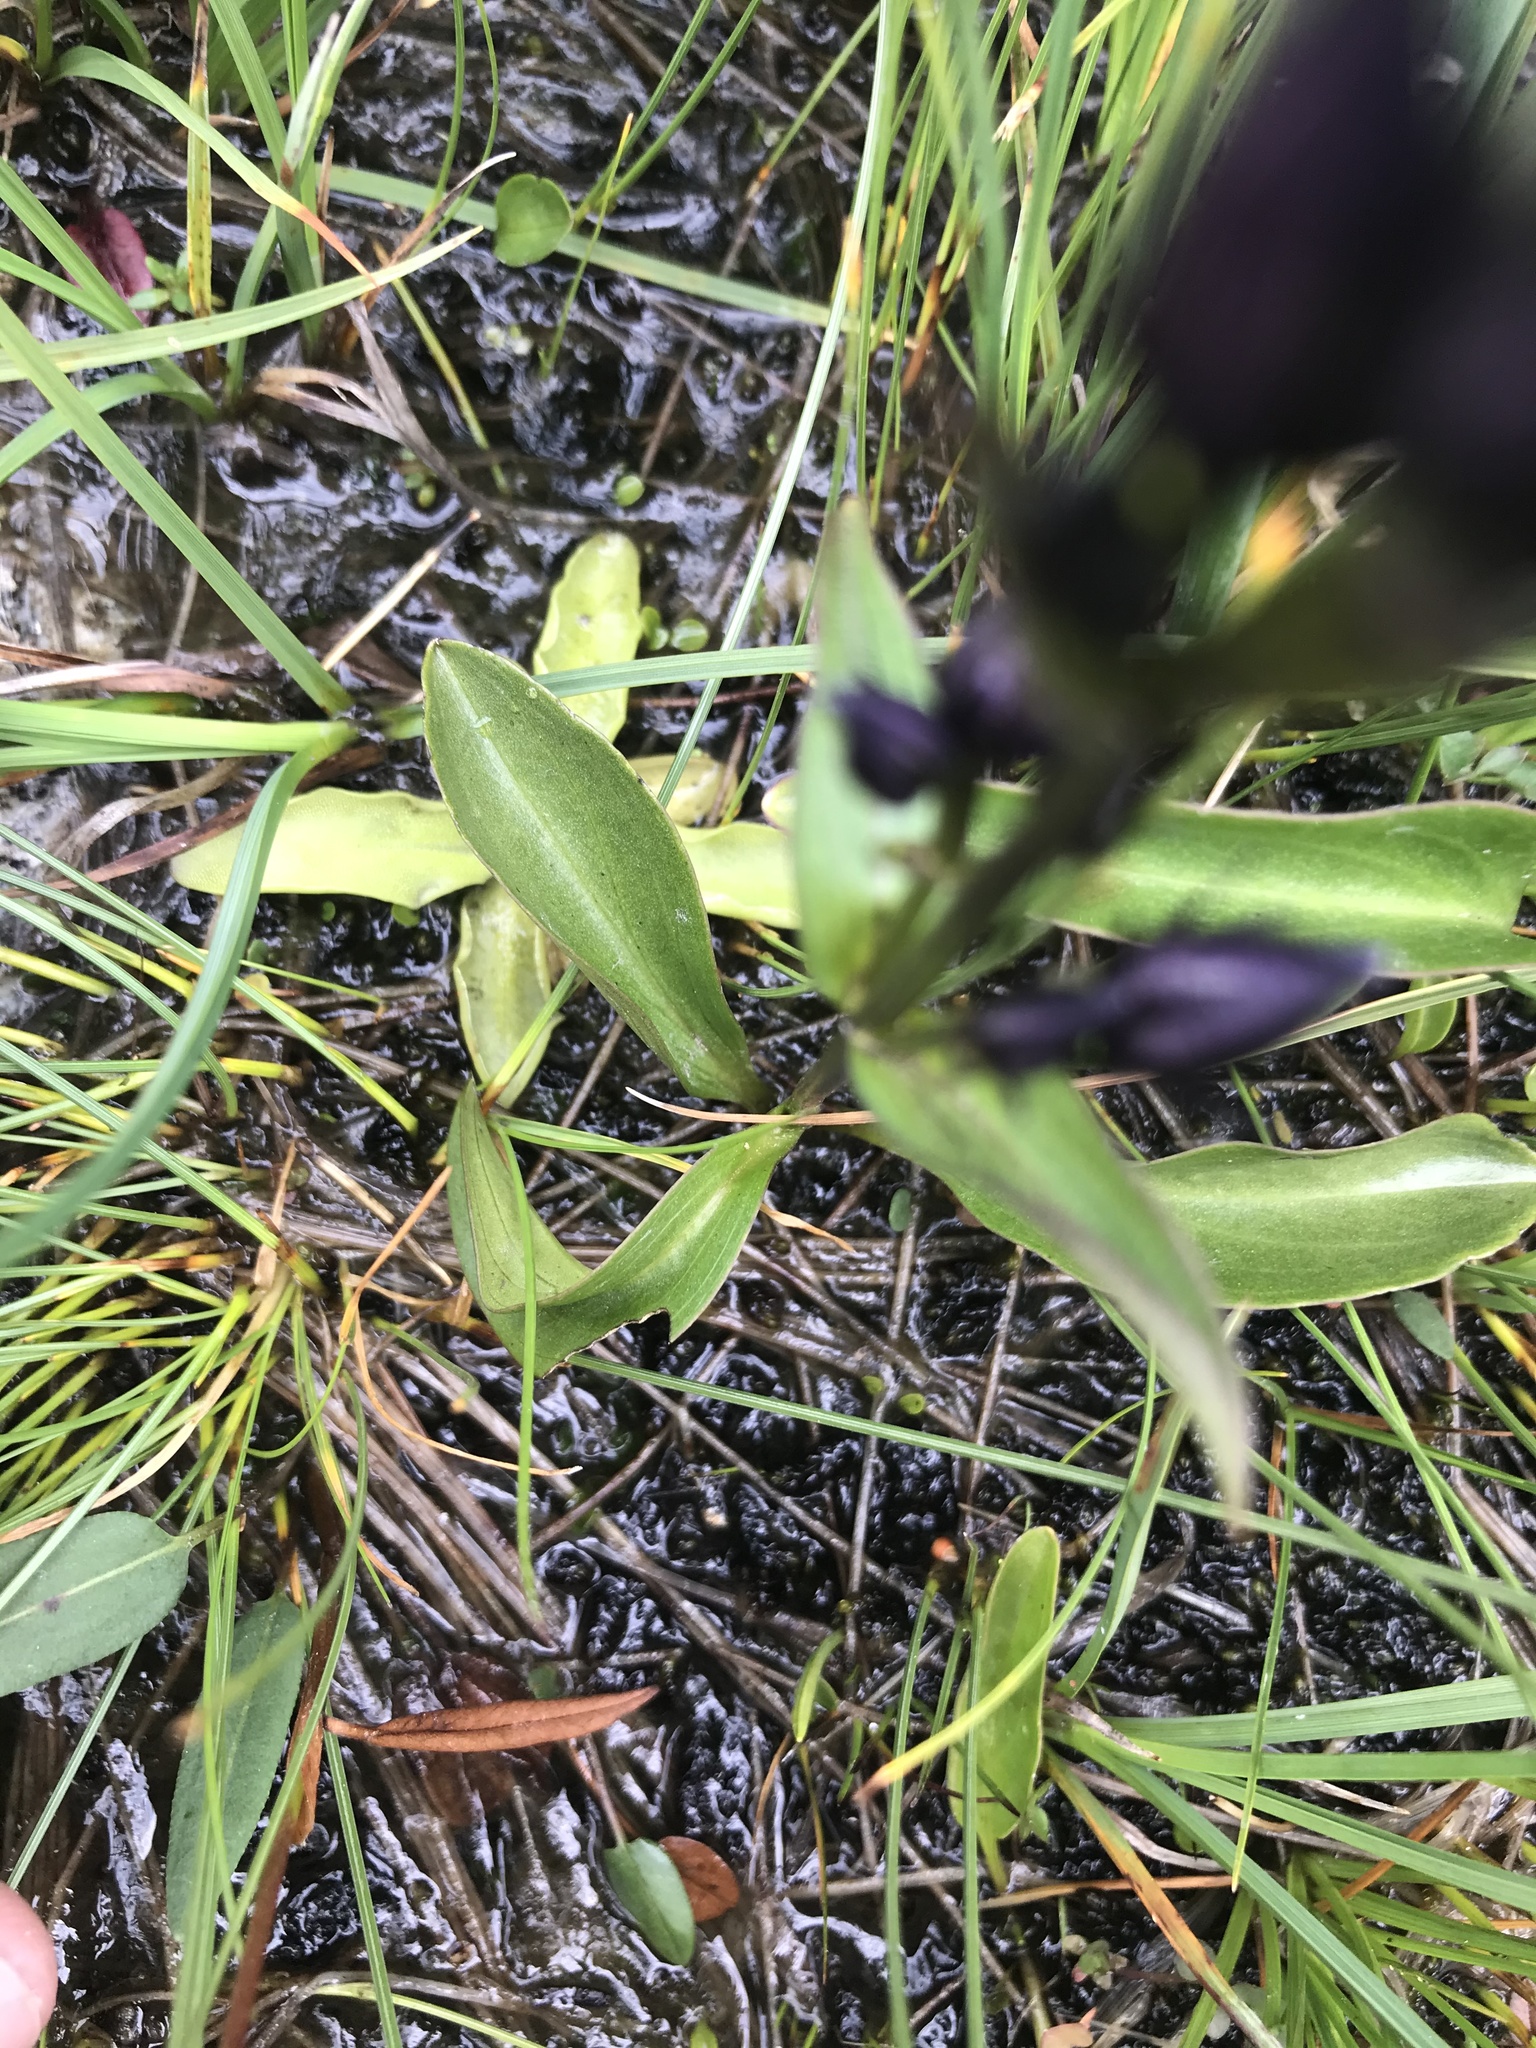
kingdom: Plantae
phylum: Tracheophyta
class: Magnoliopsida
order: Gentianales
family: Gentianaceae
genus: Swertia
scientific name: Swertia perennis
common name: Alpine bog swertia
